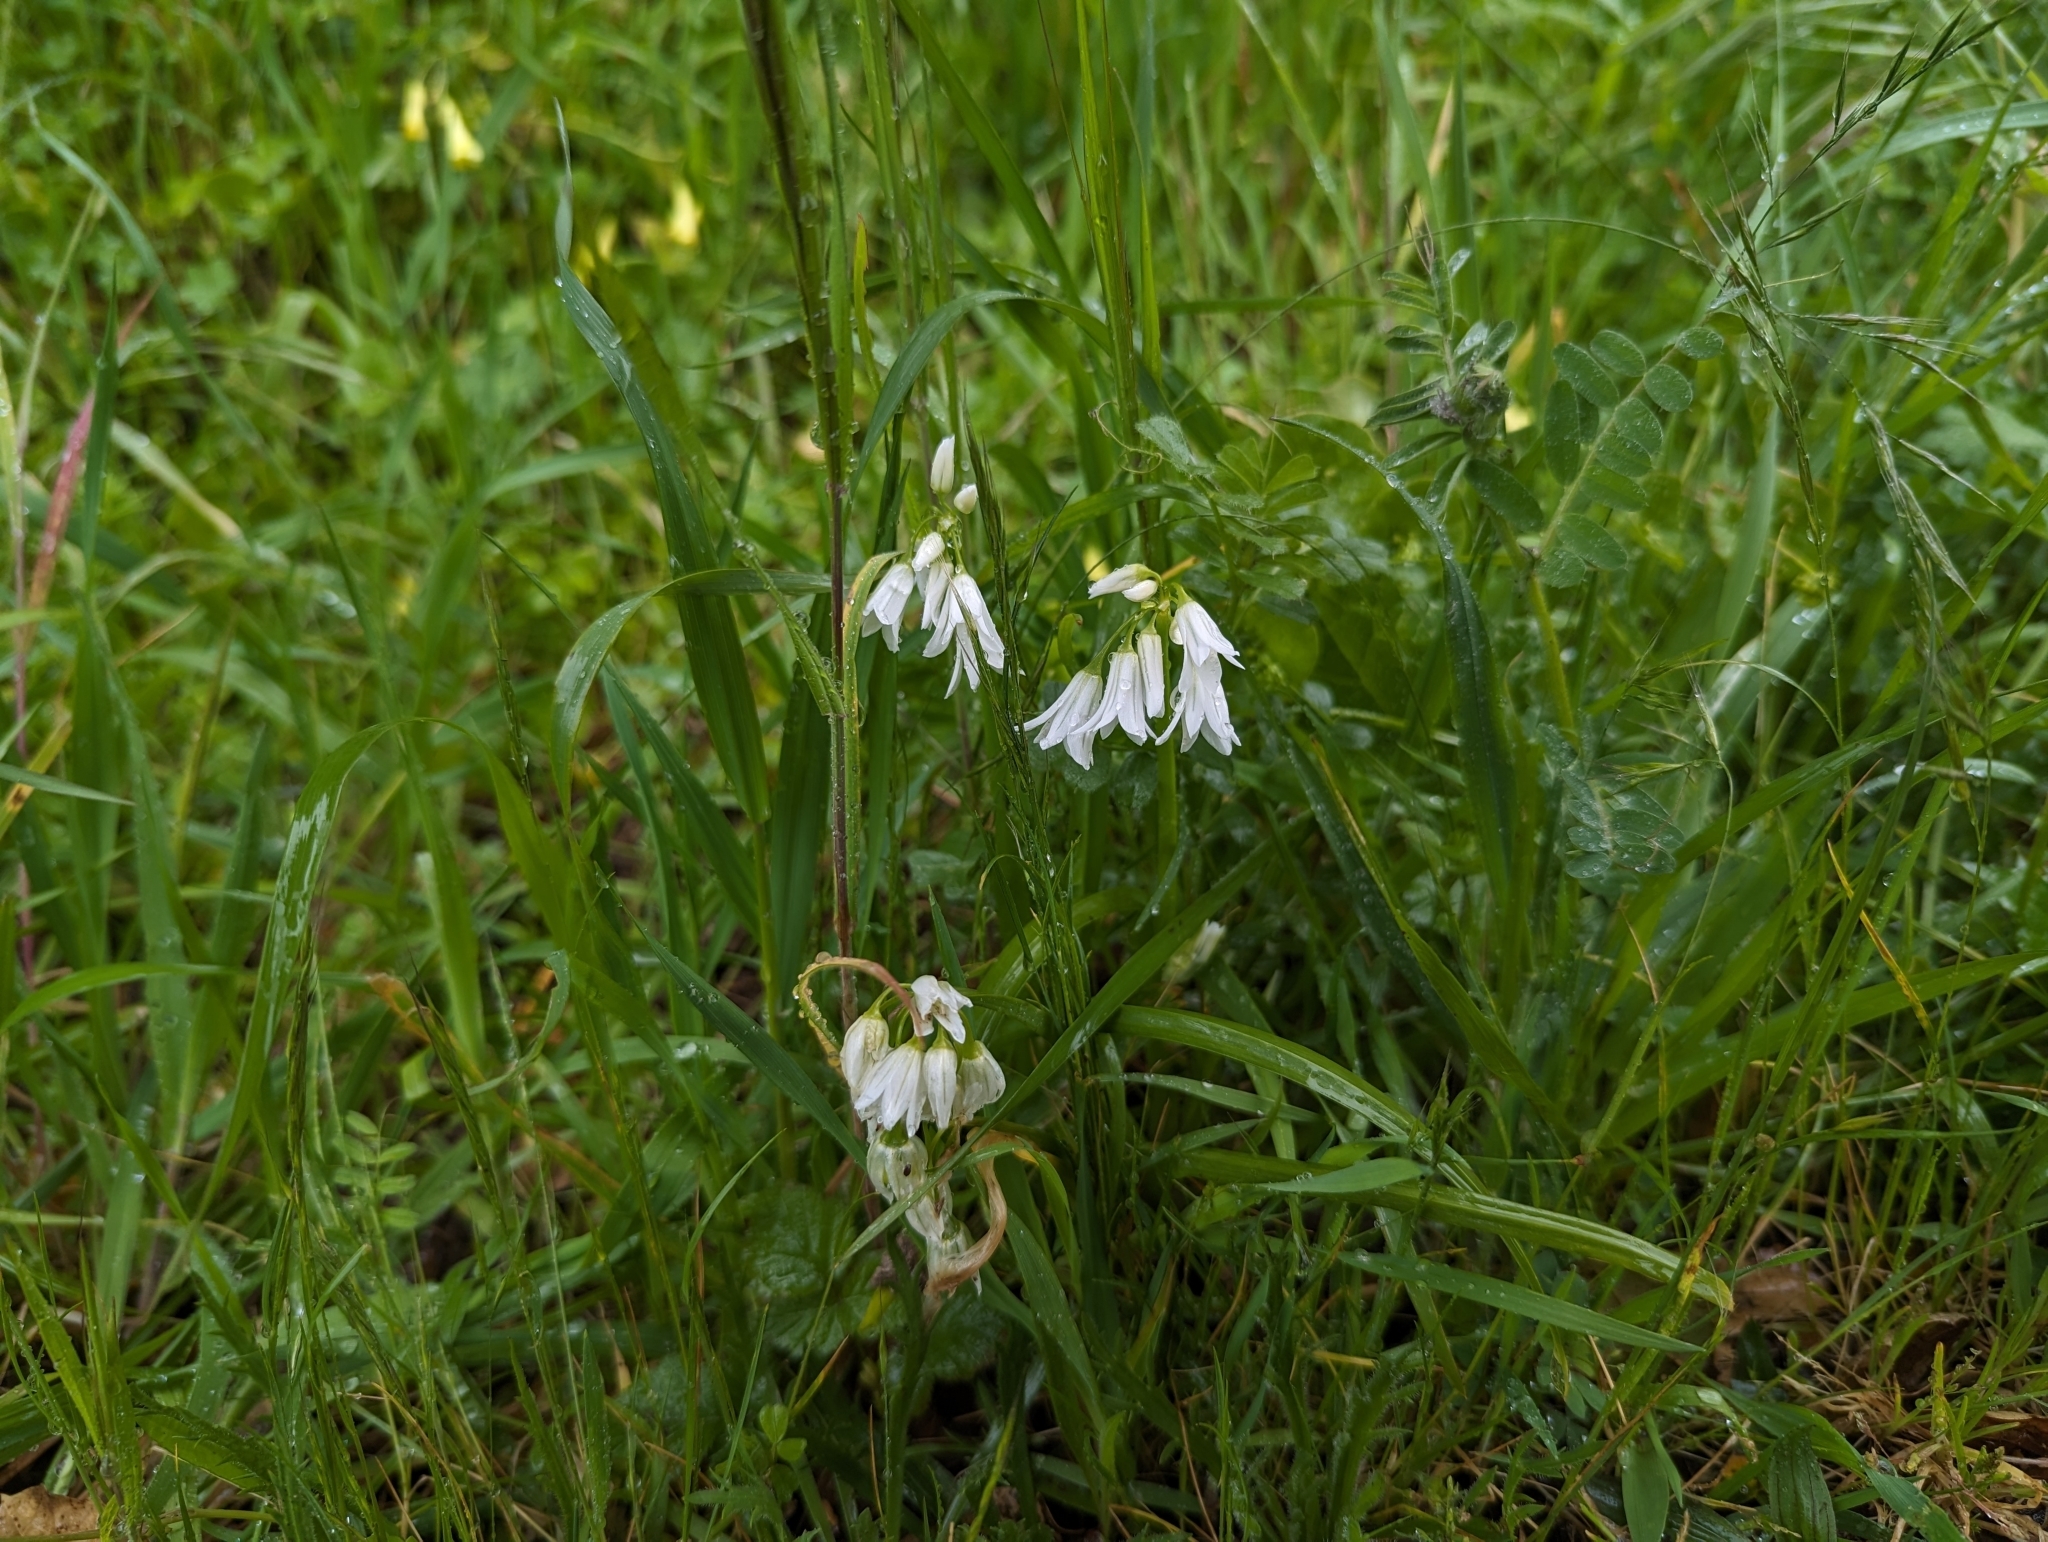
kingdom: Plantae
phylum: Tracheophyta
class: Liliopsida
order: Asparagales
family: Amaryllidaceae
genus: Allium
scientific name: Allium triquetrum
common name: Three-cornered garlic
